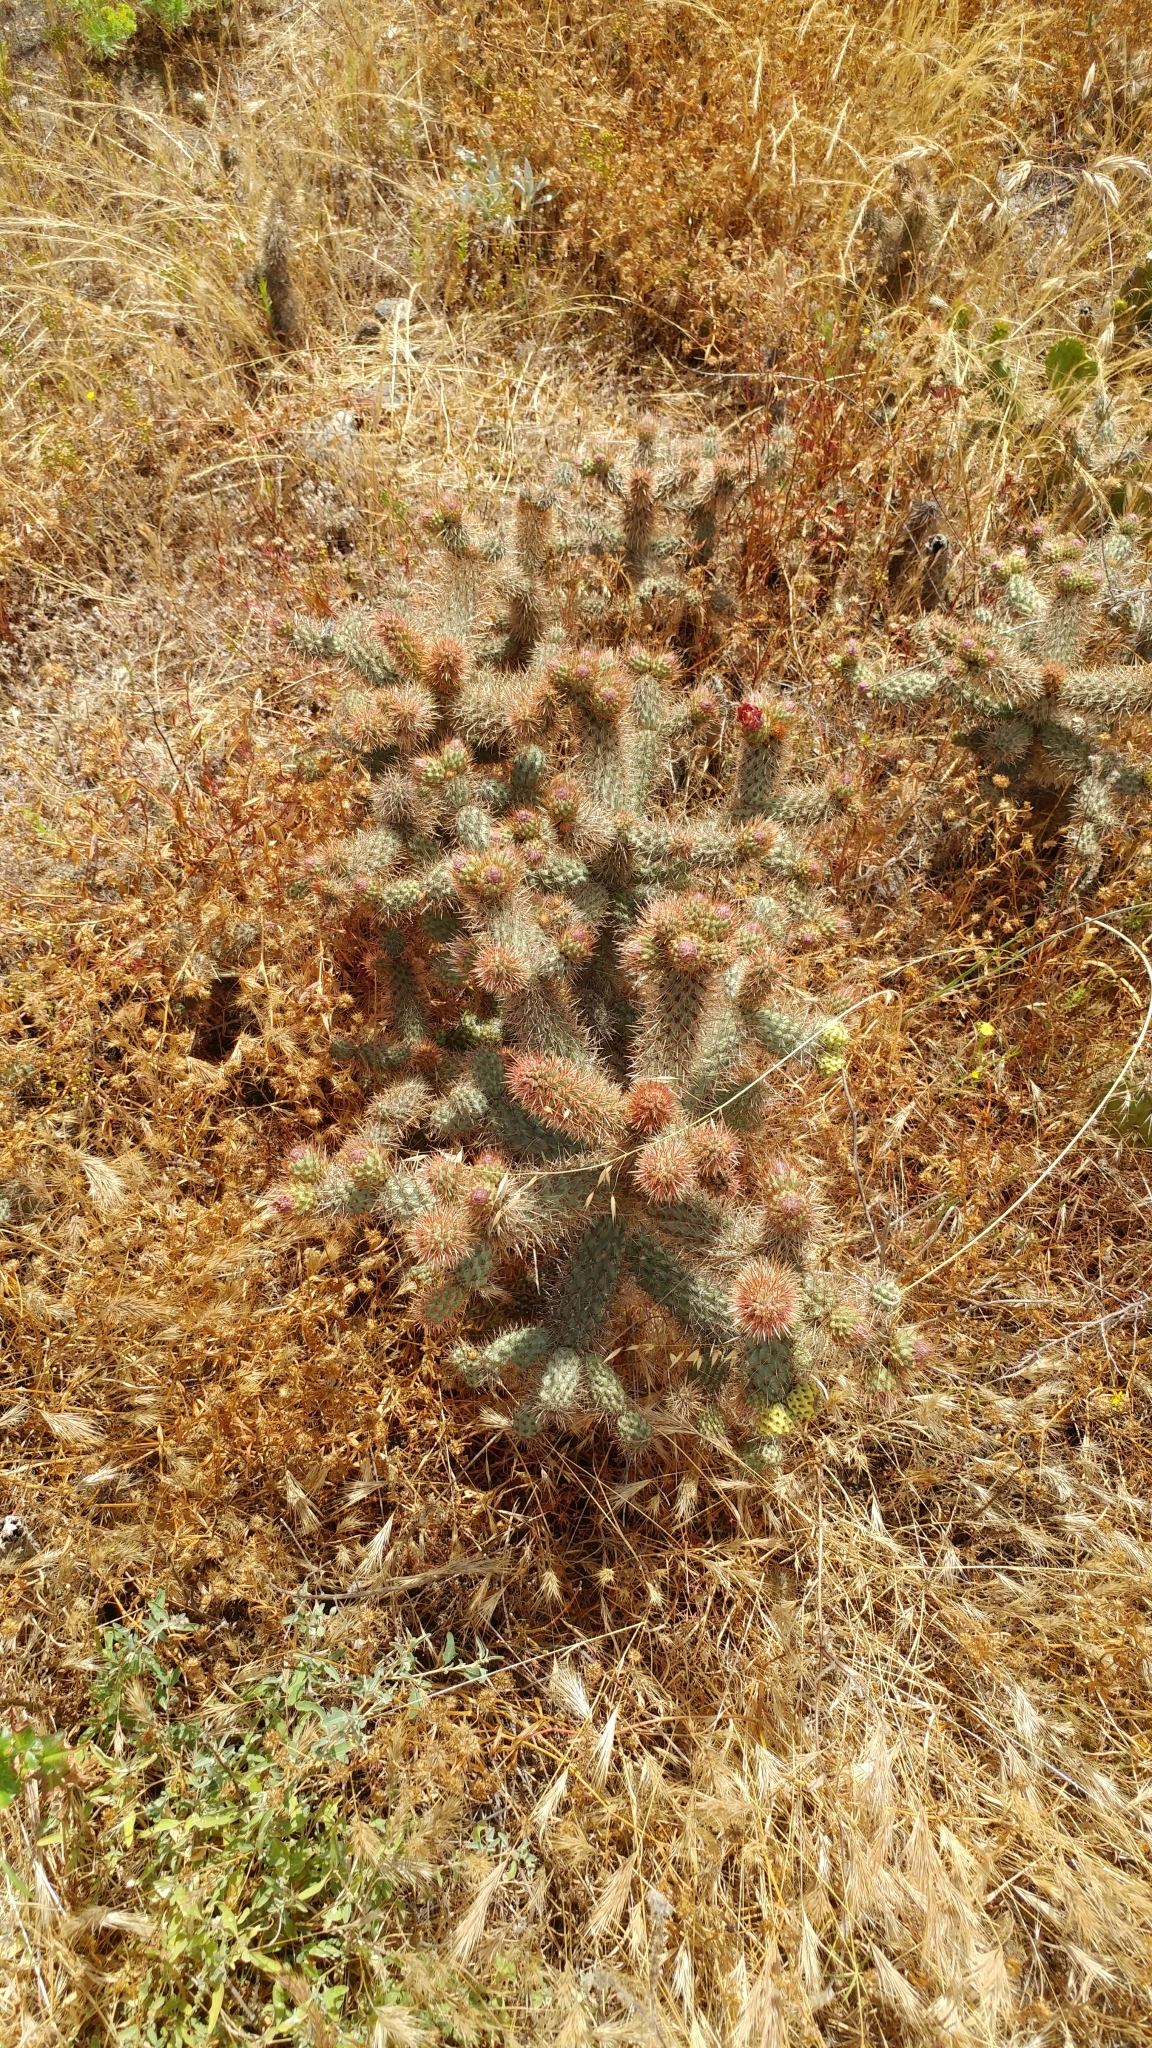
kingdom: Plantae
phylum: Tracheophyta
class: Magnoliopsida
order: Caryophyllales
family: Cactaceae
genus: Cylindropuntia
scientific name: Cylindropuntia prolifera
